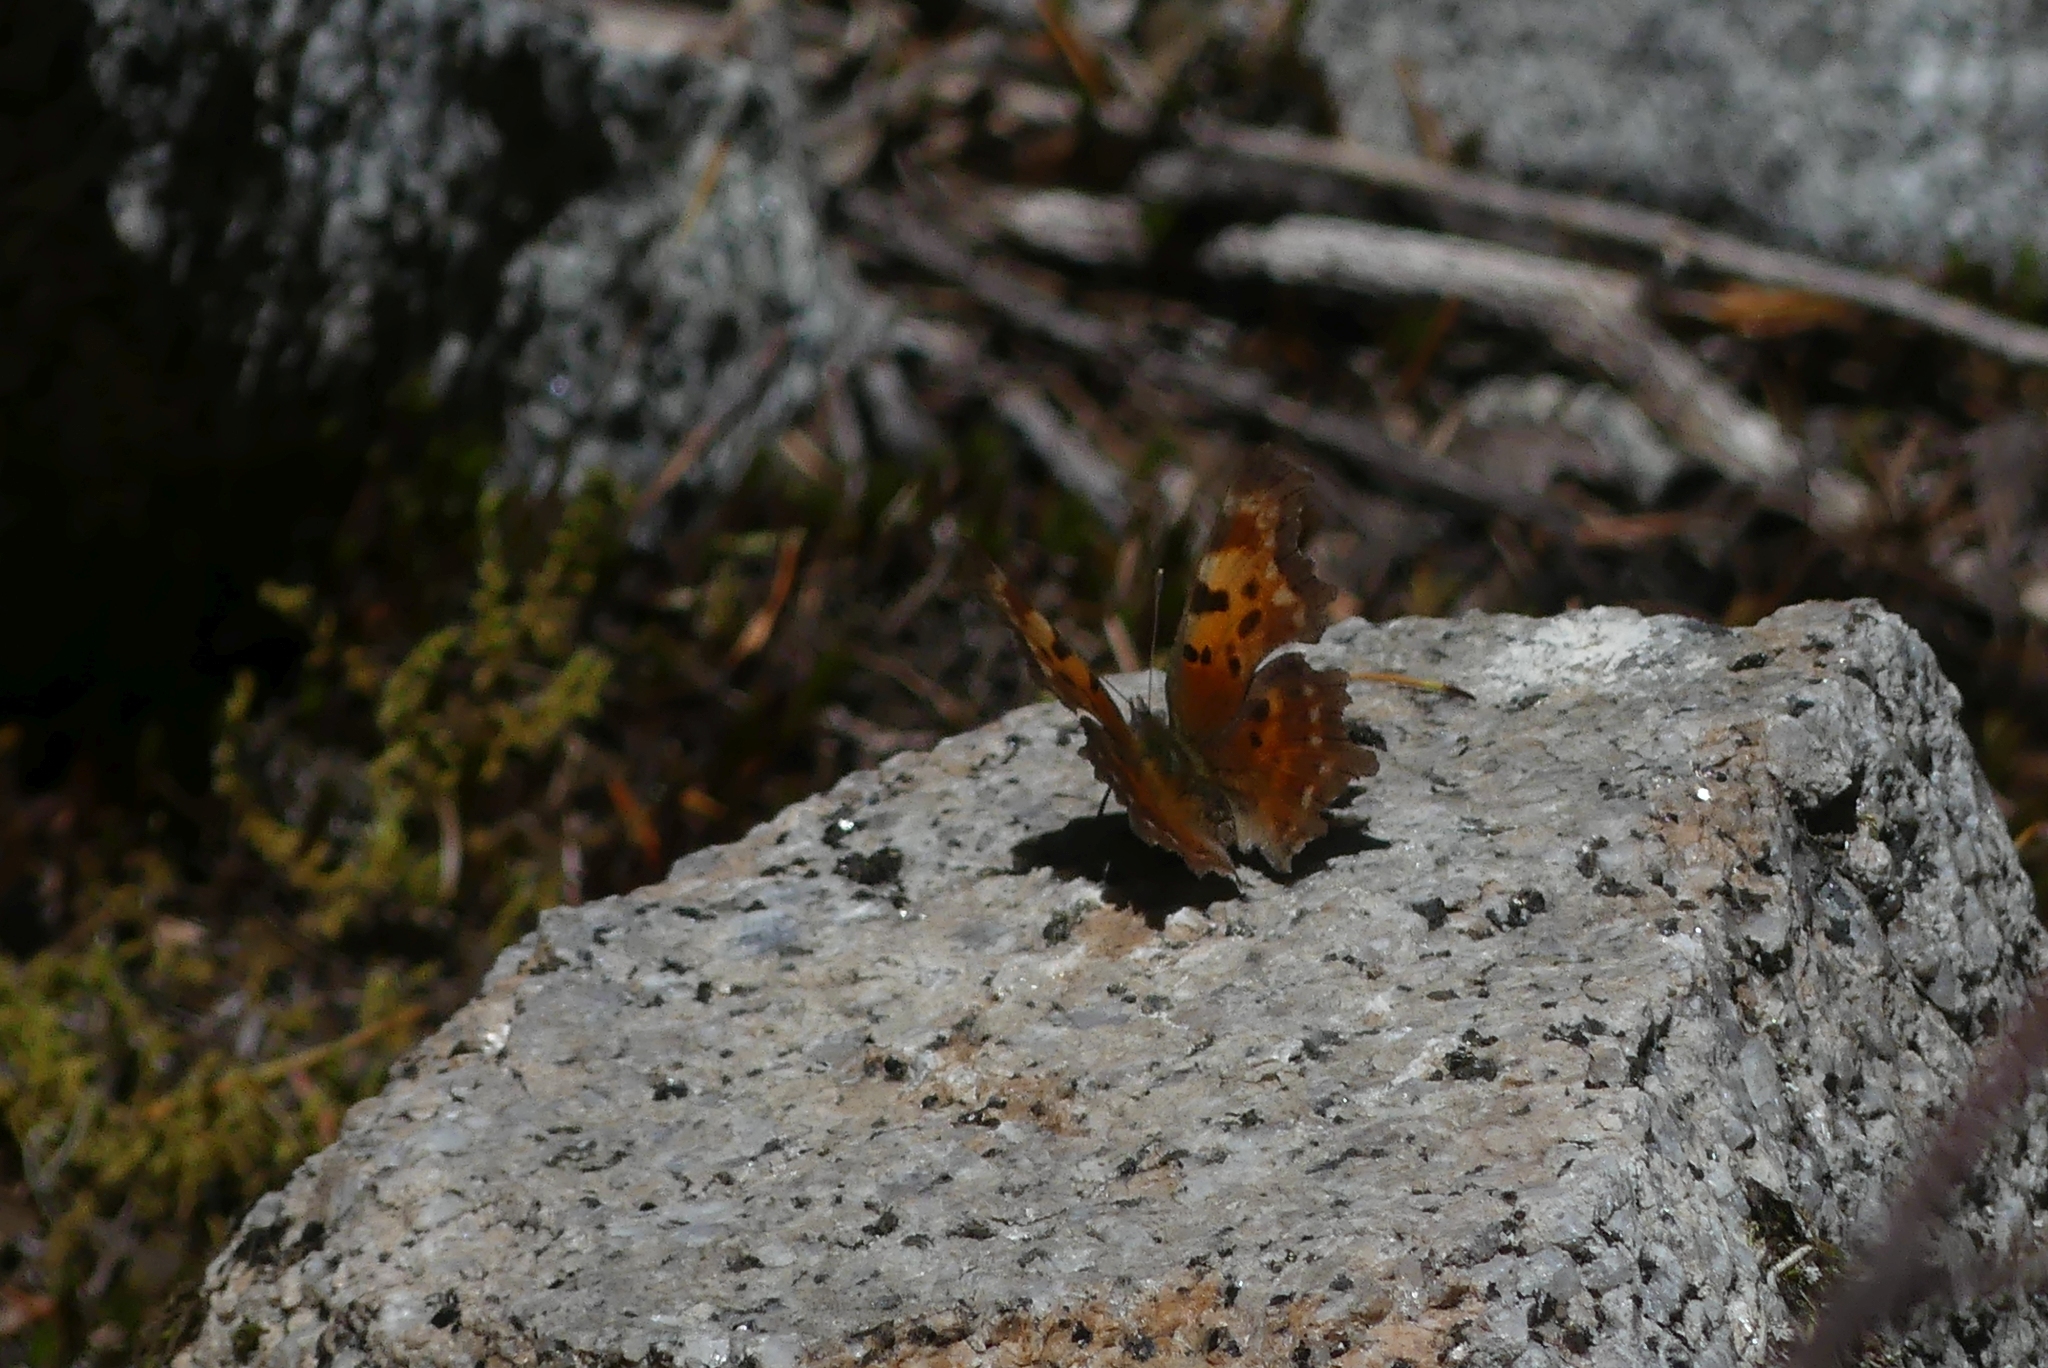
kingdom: Animalia
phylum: Arthropoda
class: Insecta
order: Lepidoptera
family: Nymphalidae
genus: Polygonia
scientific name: Polygonia faunus
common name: Green comma
